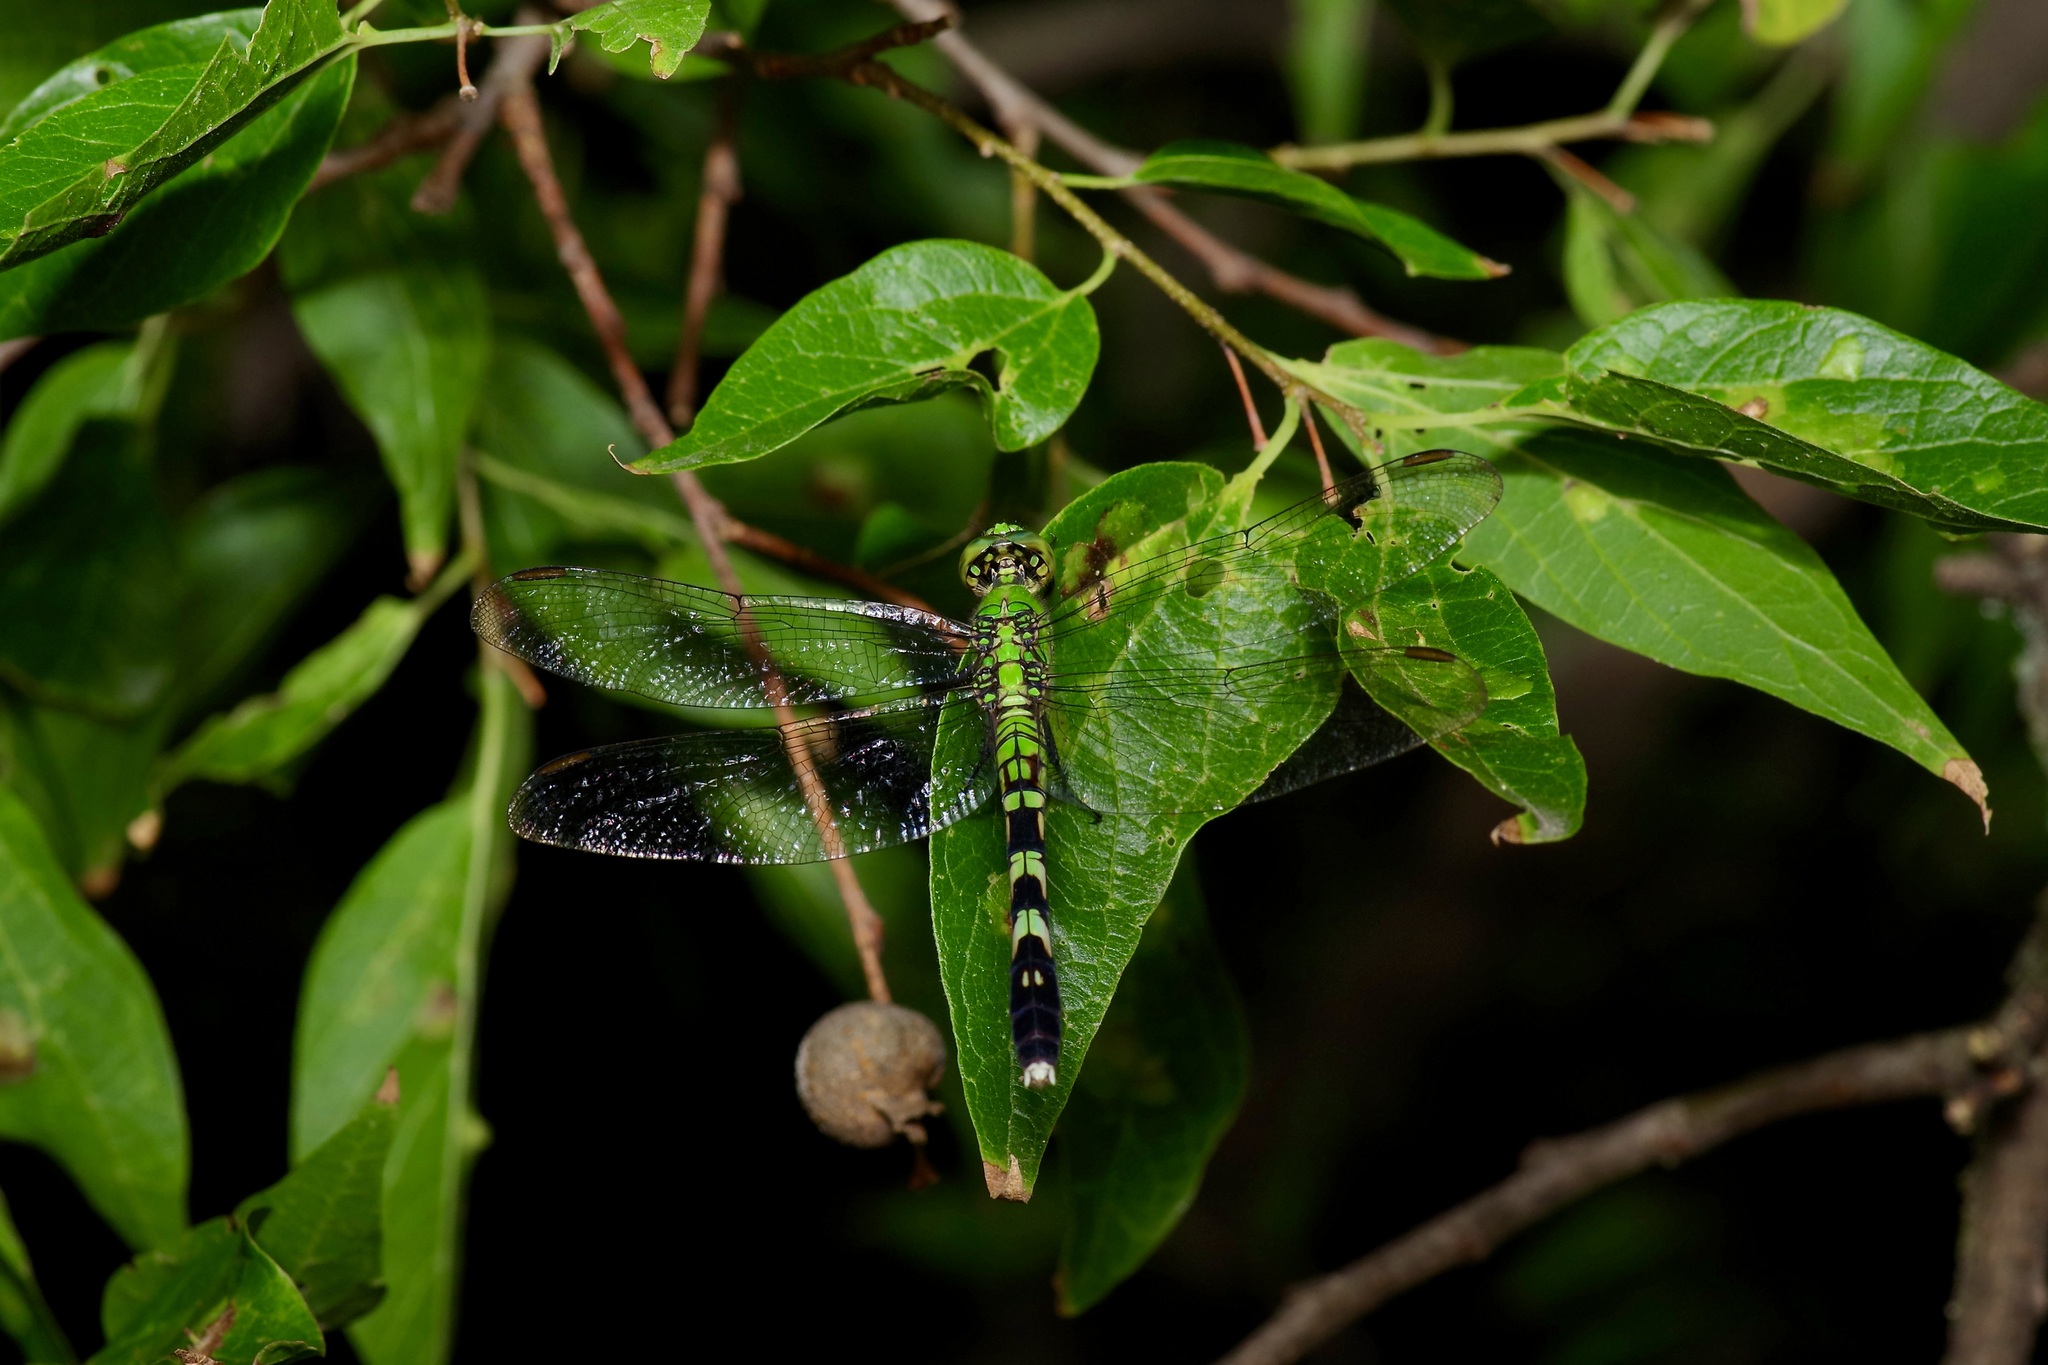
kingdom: Animalia
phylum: Arthropoda
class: Insecta
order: Odonata
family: Libellulidae
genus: Erythemis
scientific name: Erythemis simplicicollis
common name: Eastern pondhawk
